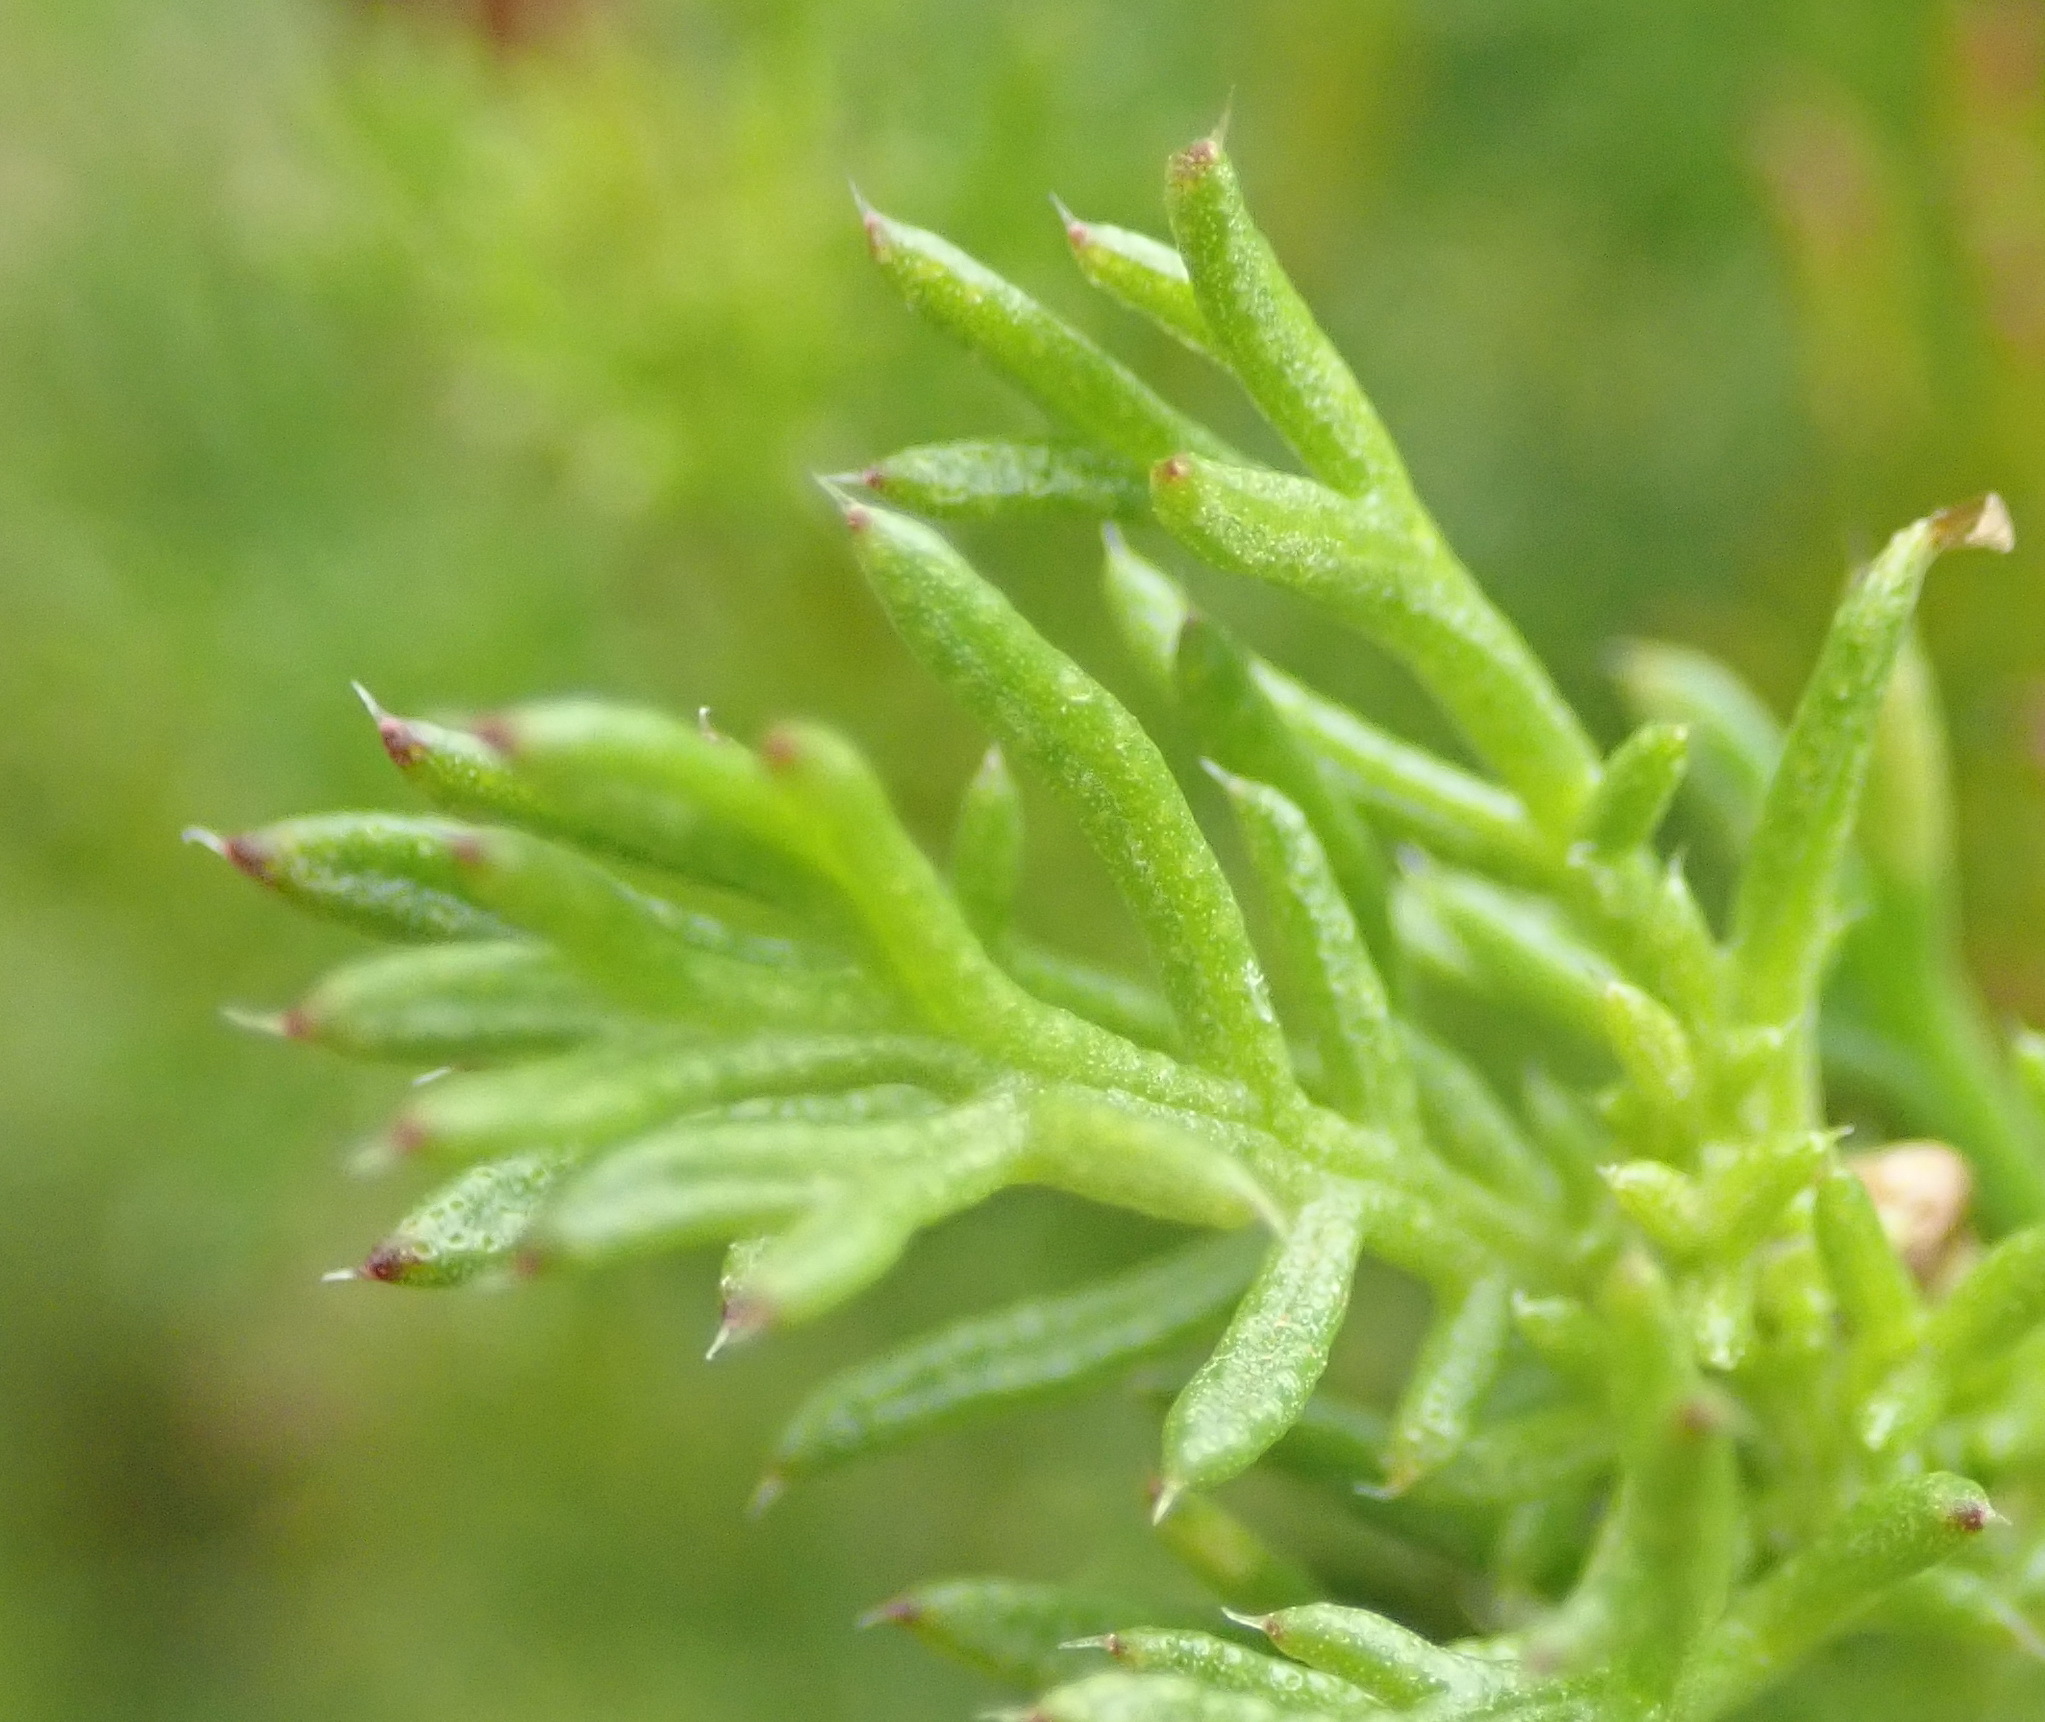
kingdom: Plantae
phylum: Tracheophyta
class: Magnoliopsida
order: Asterales
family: Asteraceae
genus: Ursinia
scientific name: Ursinia scariosa
